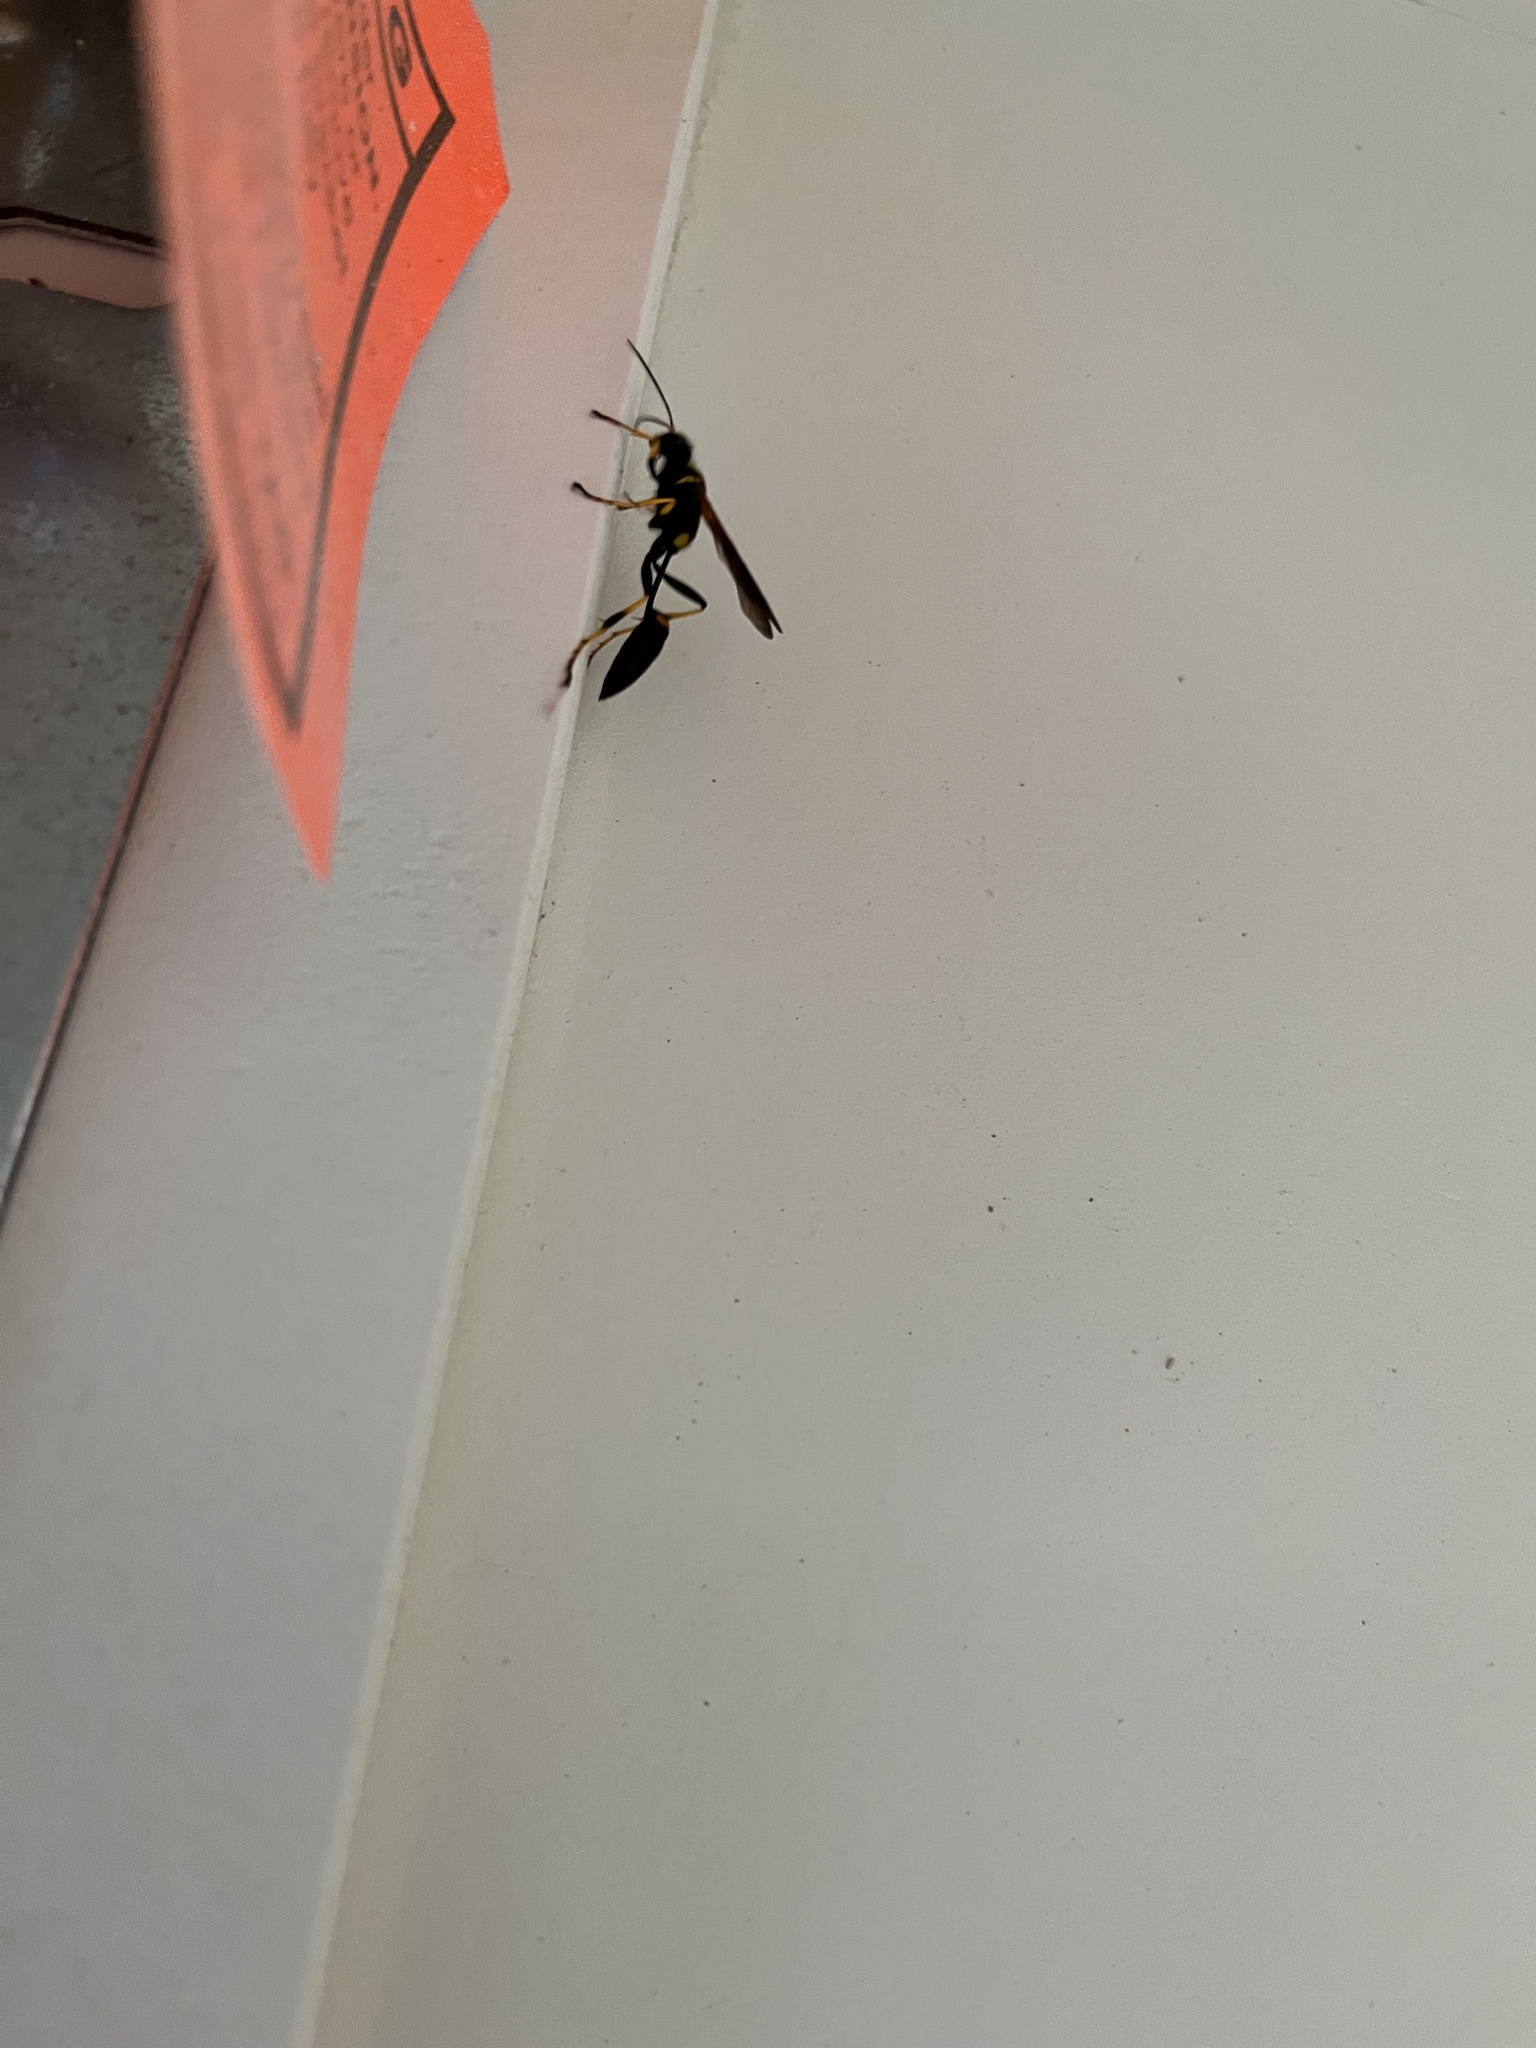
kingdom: Animalia
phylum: Arthropoda
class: Insecta
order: Hymenoptera
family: Sphecidae
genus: Sceliphron
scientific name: Sceliphron caementarium
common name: Mud dauber
